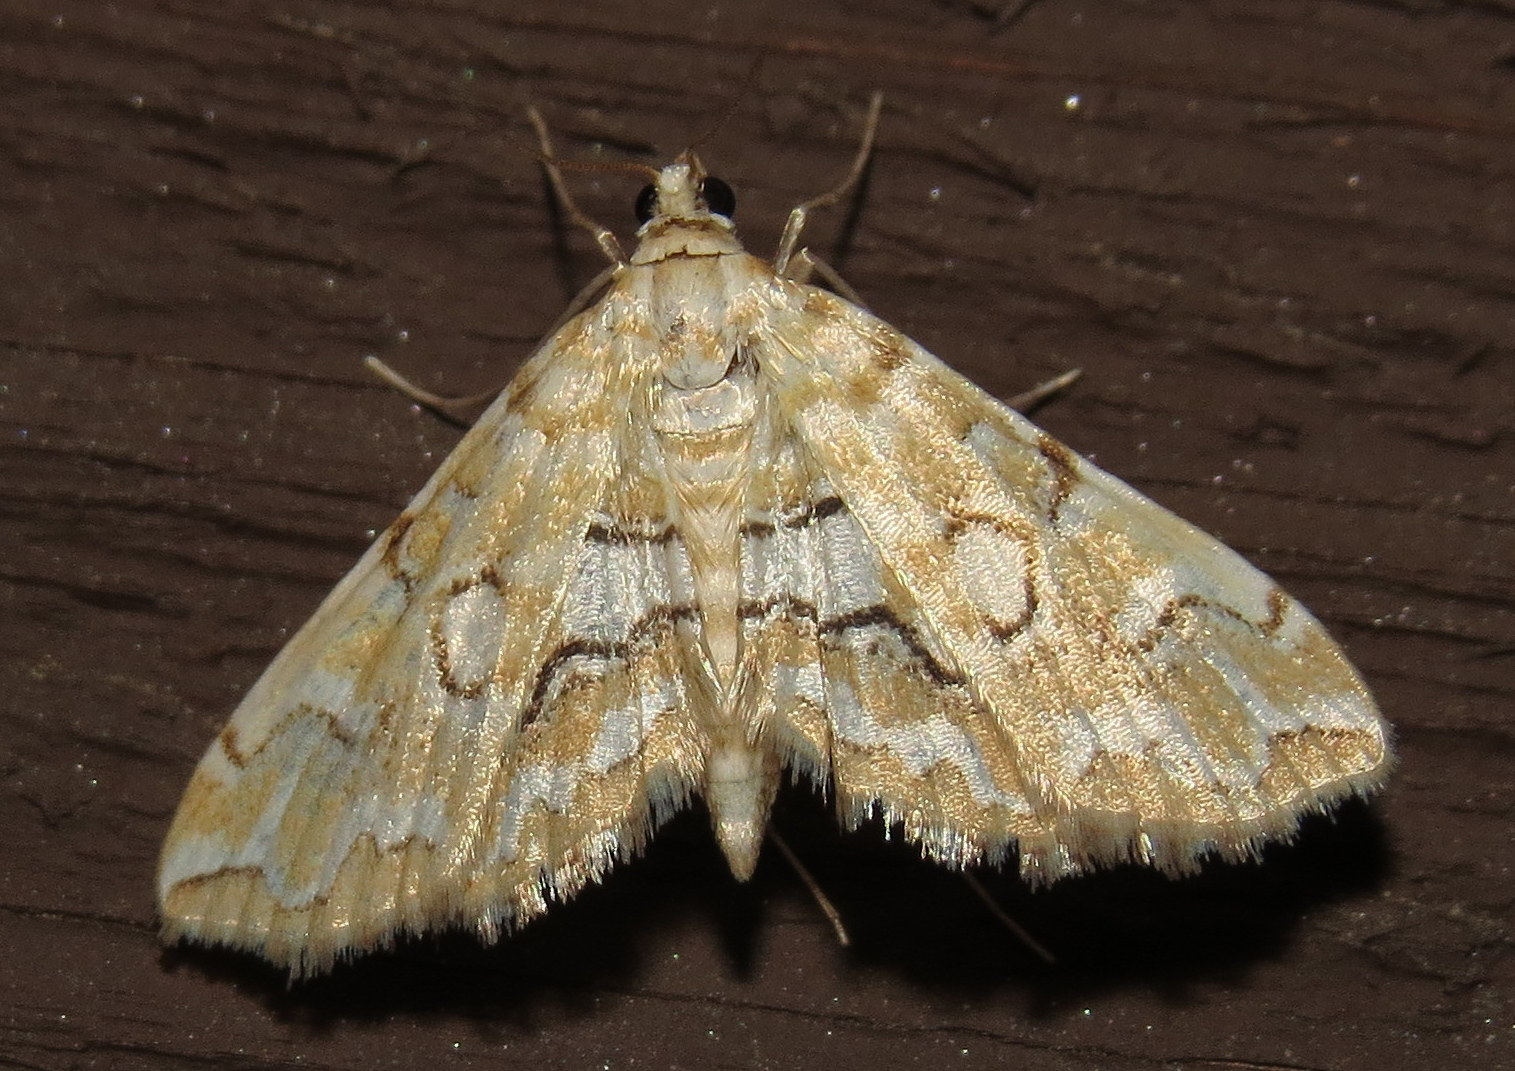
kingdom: Animalia
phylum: Arthropoda
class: Insecta
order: Lepidoptera
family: Crambidae
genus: Elophila
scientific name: Elophila icciusalis
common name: Pondside pyralid moth
